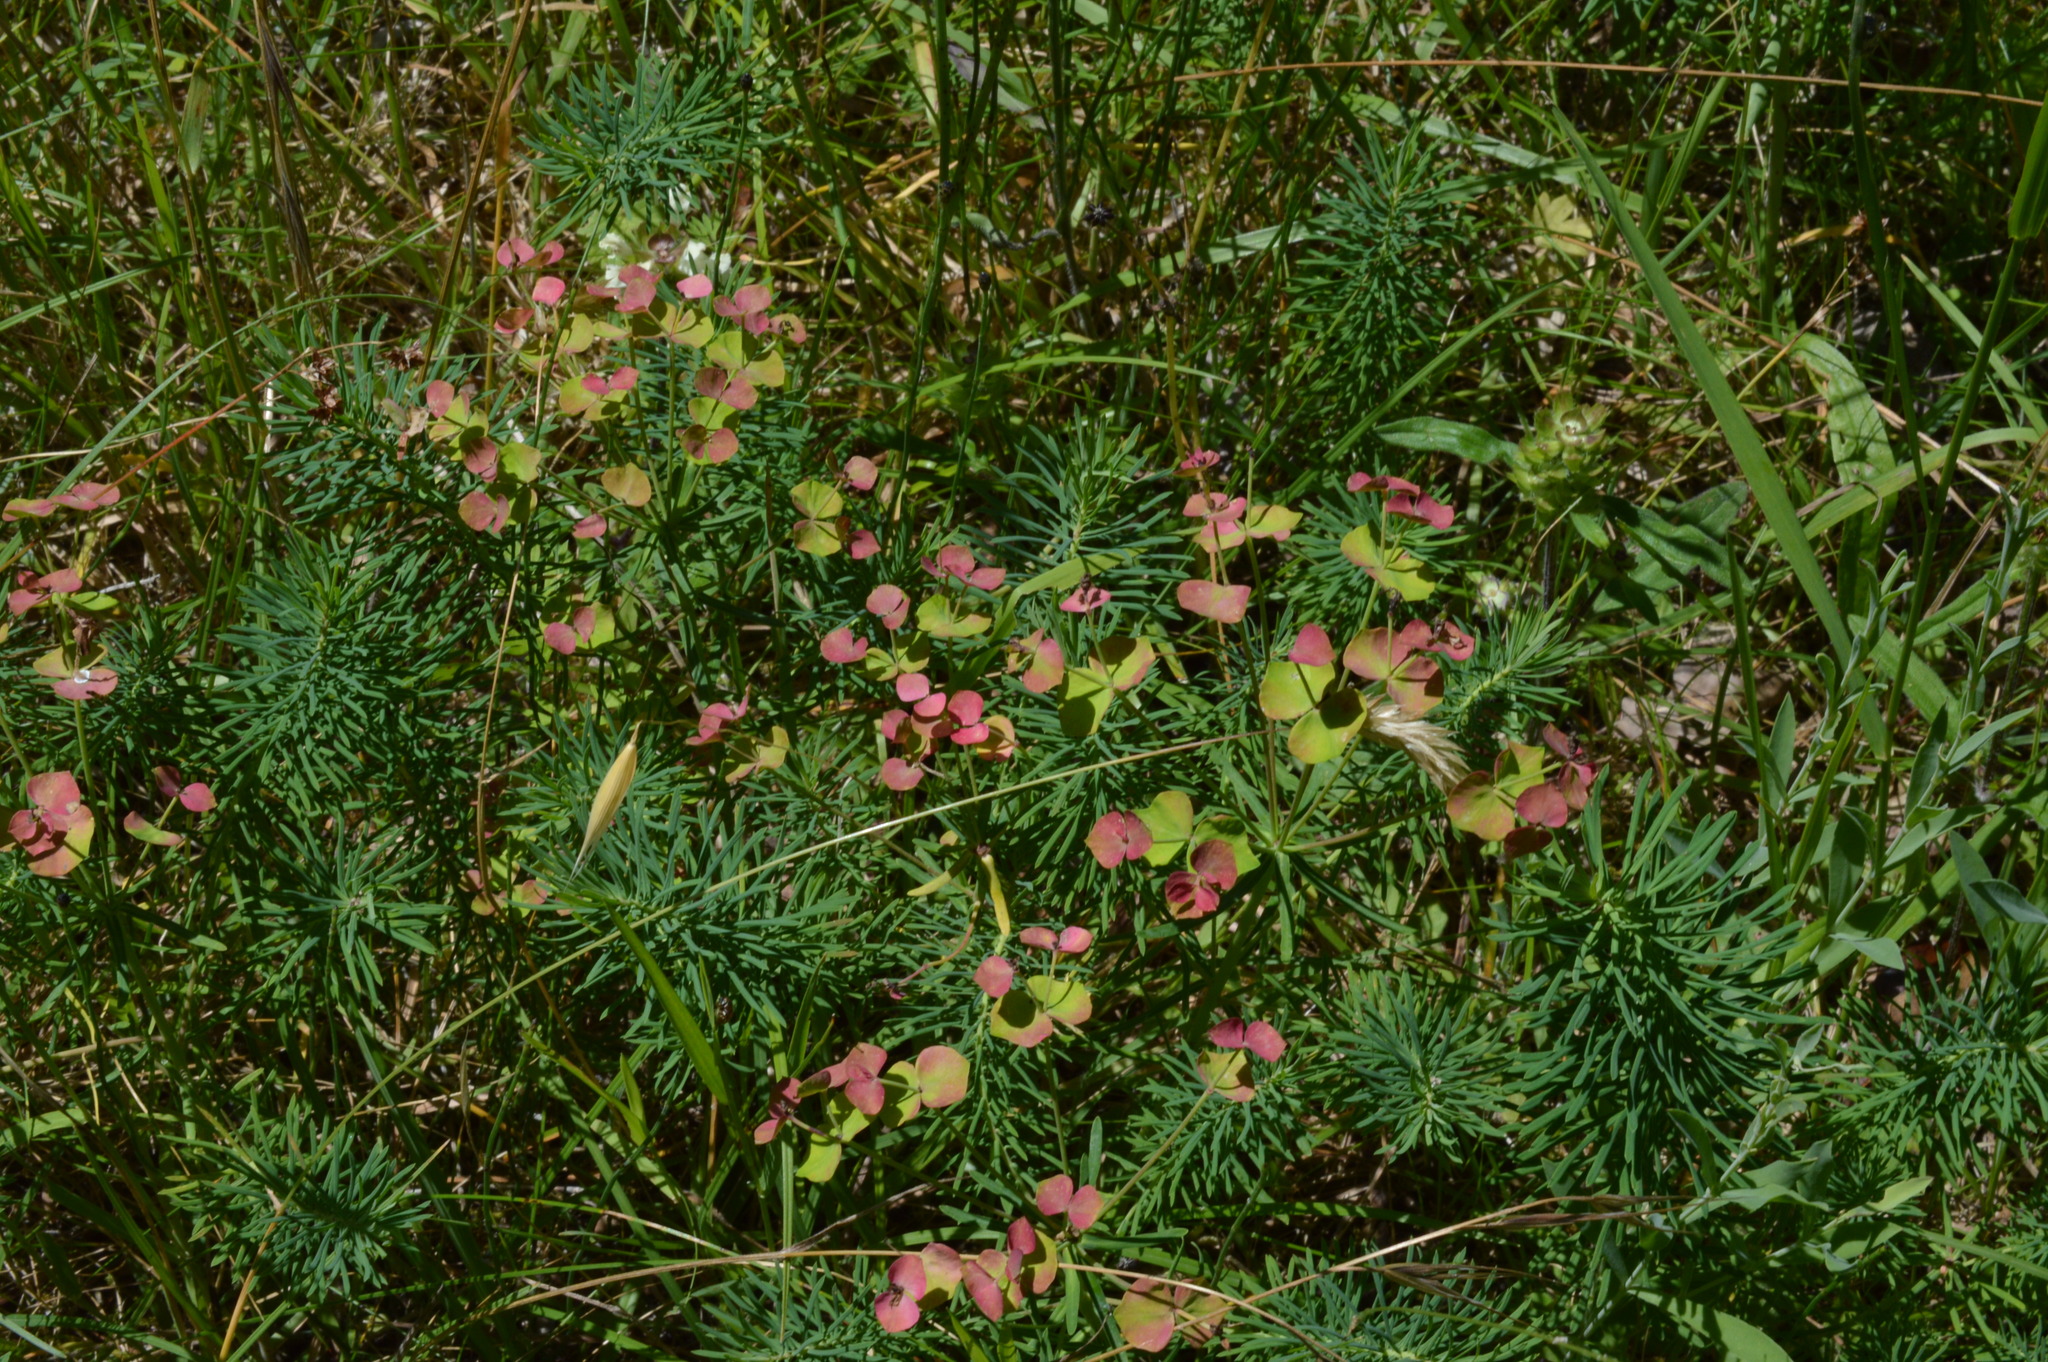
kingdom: Plantae
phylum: Tracheophyta
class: Magnoliopsida
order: Malpighiales
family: Euphorbiaceae
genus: Euphorbia
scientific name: Euphorbia cyparissias
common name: Cypress spurge
